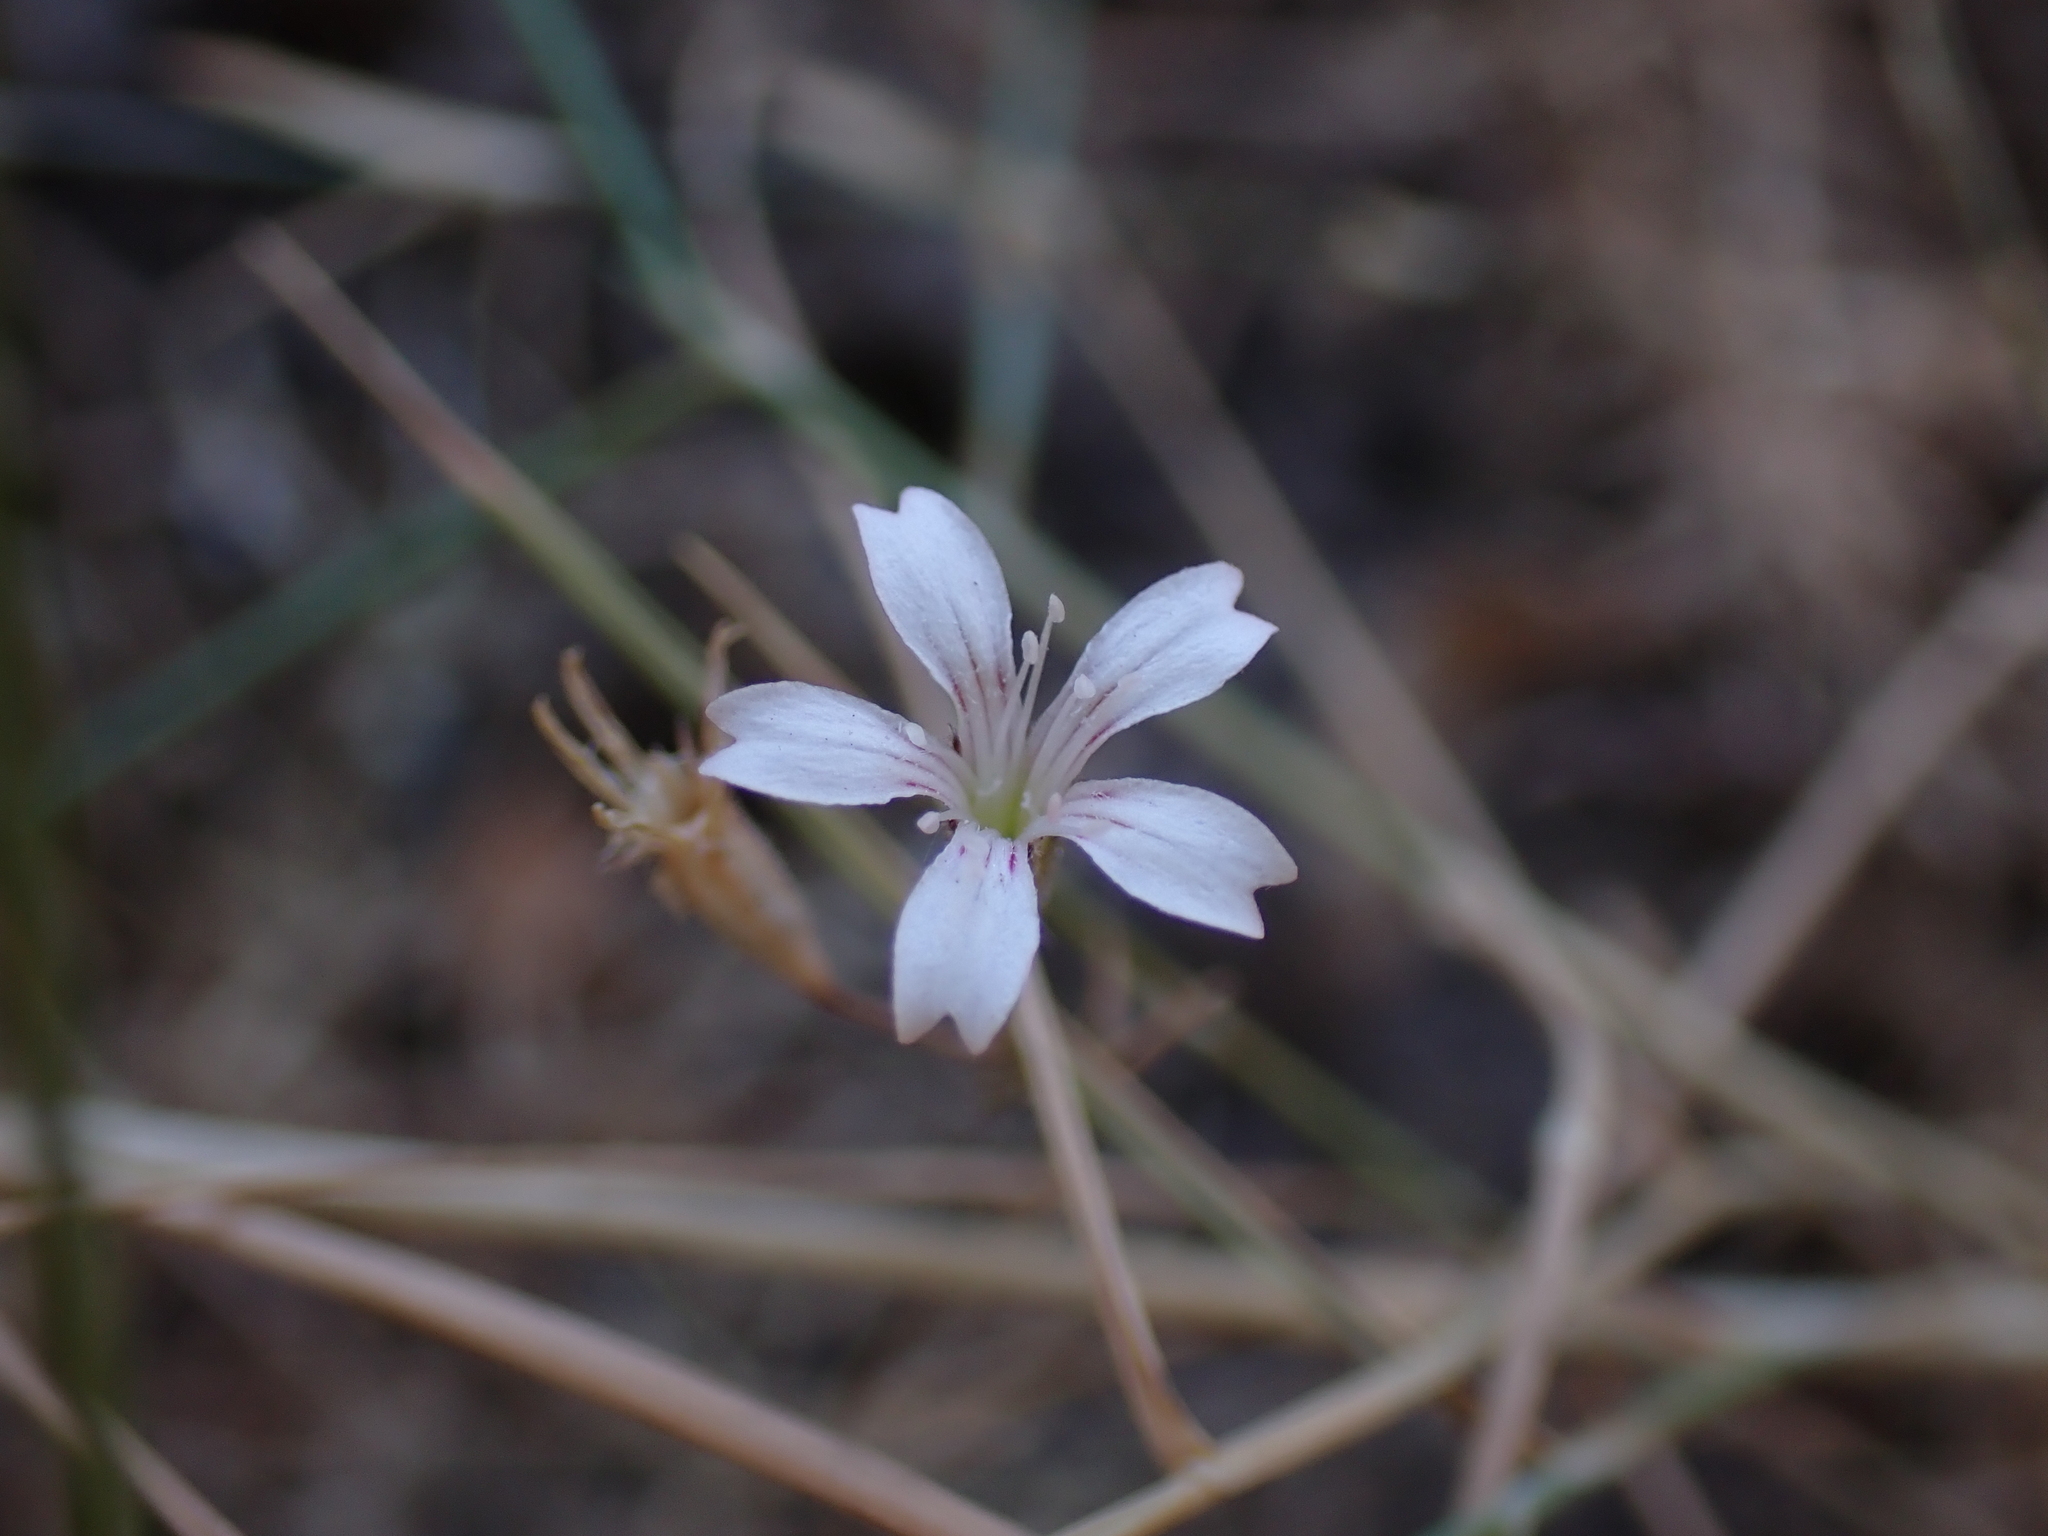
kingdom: Plantae
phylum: Tracheophyta
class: Magnoliopsida
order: Caryophyllales
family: Caryophyllaceae
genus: Dianthus
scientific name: Dianthus candicus
